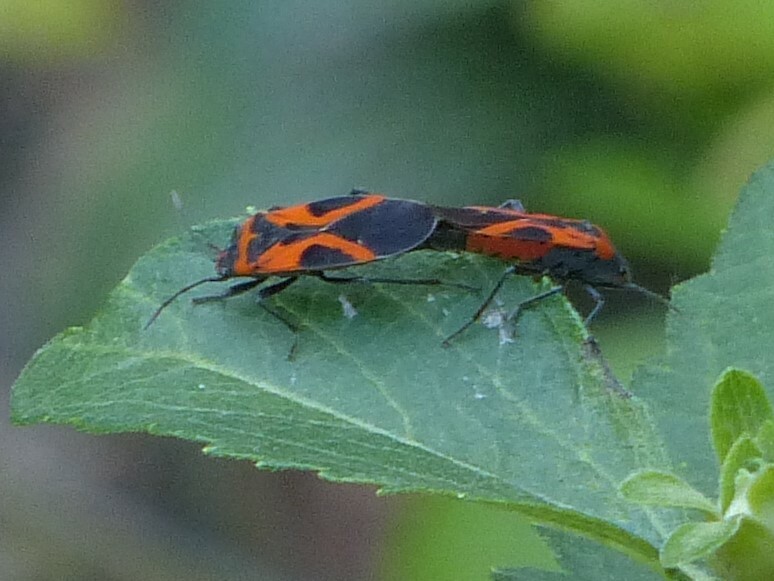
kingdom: Animalia
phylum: Arthropoda
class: Insecta
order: Hemiptera
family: Lygaeidae
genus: Lygaeus
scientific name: Lygaeus turcicus
